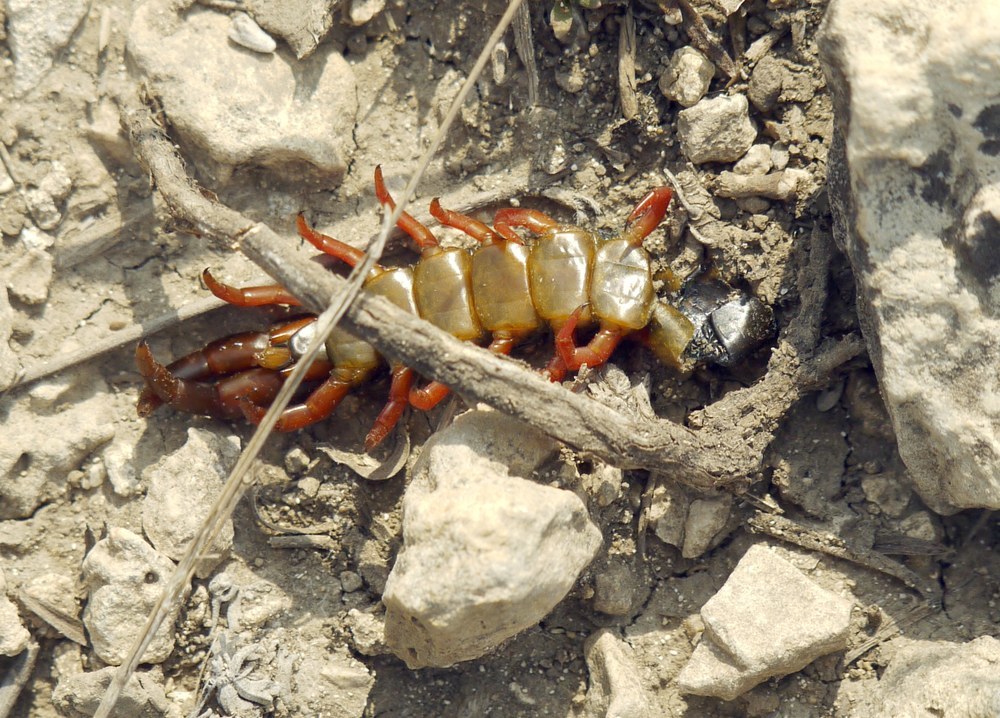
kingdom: Animalia
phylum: Arthropoda
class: Chilopoda
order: Scolopendromorpha
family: Scolopendridae
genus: Scolopendra
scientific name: Scolopendra cingulata
